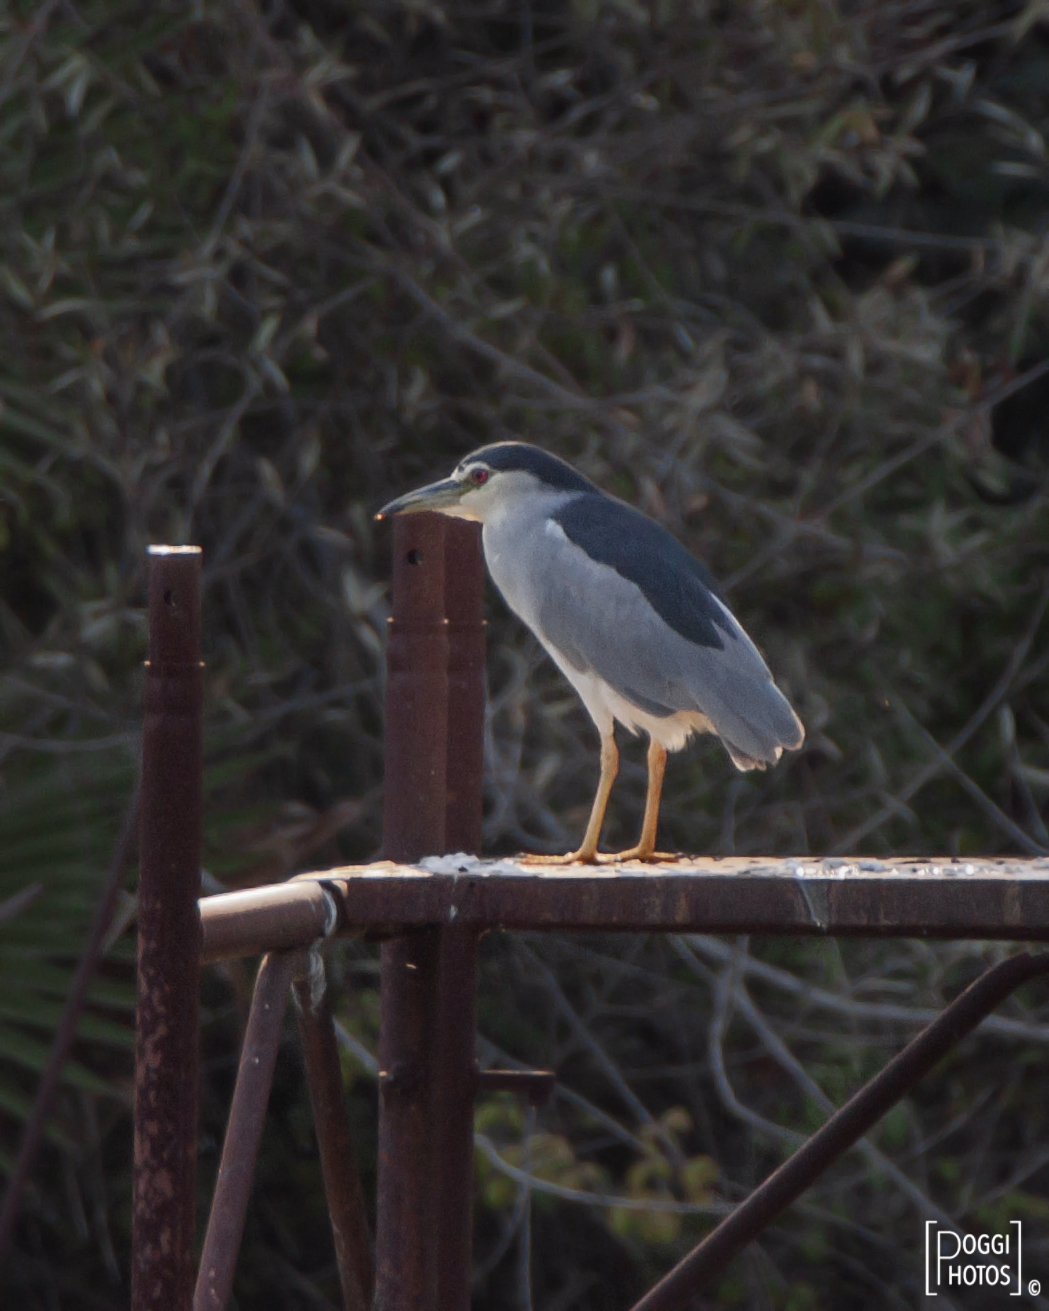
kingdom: Animalia
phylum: Chordata
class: Aves
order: Pelecaniformes
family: Ardeidae
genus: Nycticorax
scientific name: Nycticorax nycticorax
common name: Black-crowned night heron
